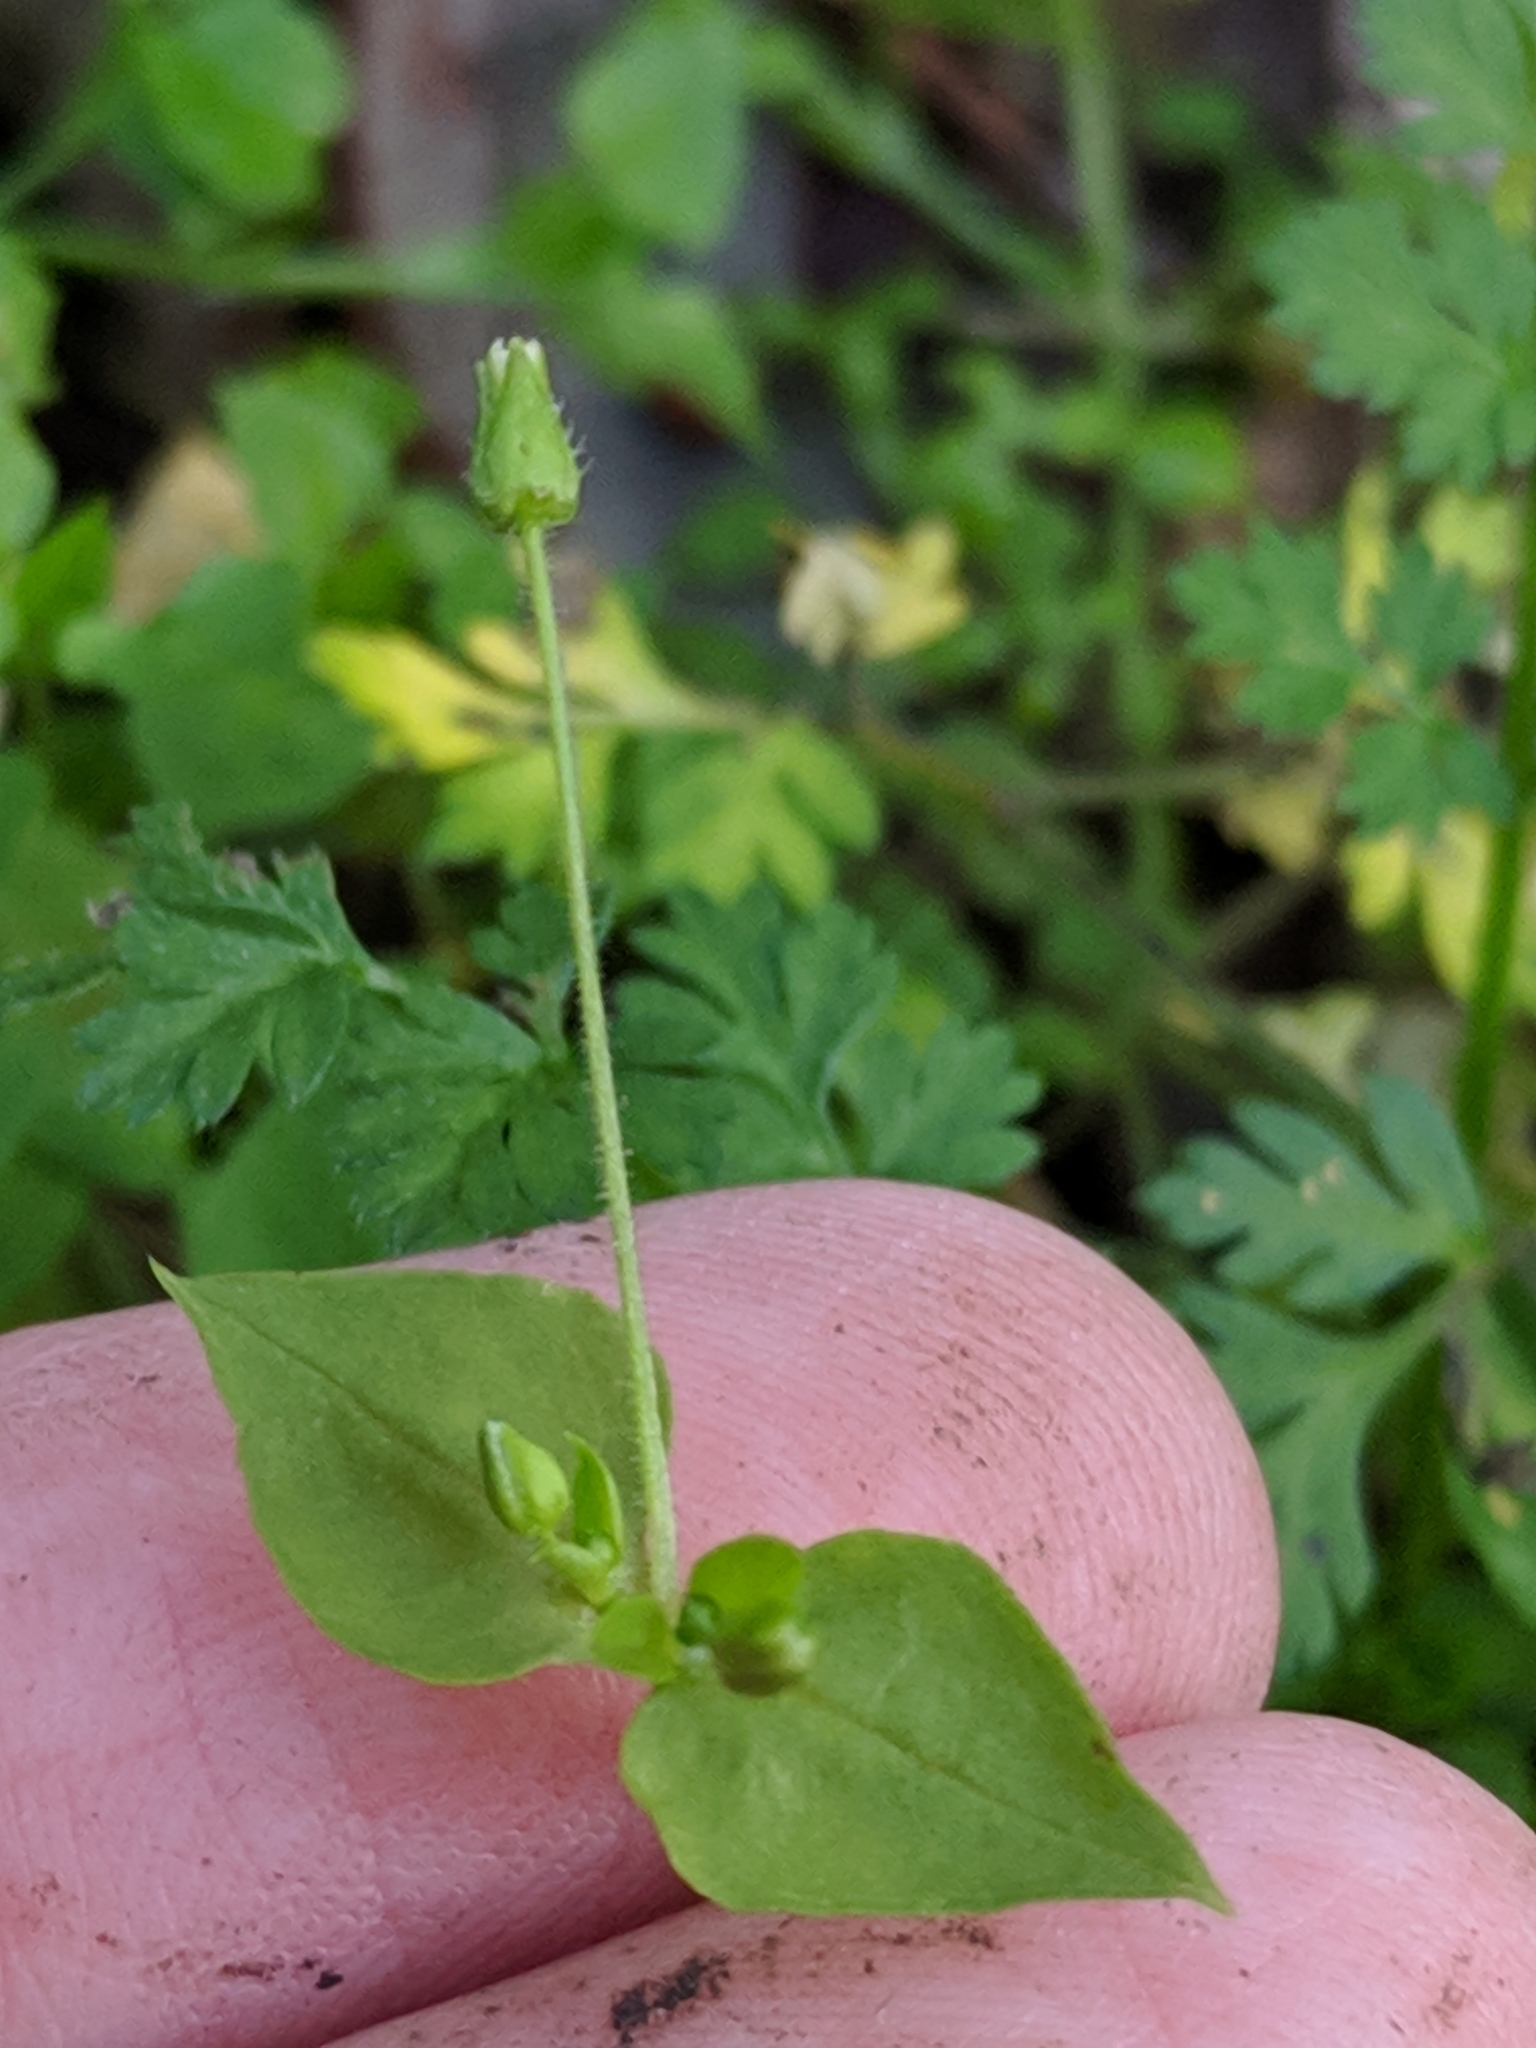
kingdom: Plantae
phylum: Tracheophyta
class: Magnoliopsida
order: Caryophyllales
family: Caryophyllaceae
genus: Stellaria
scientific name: Stellaria cuspidata
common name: Mexican chickweed
